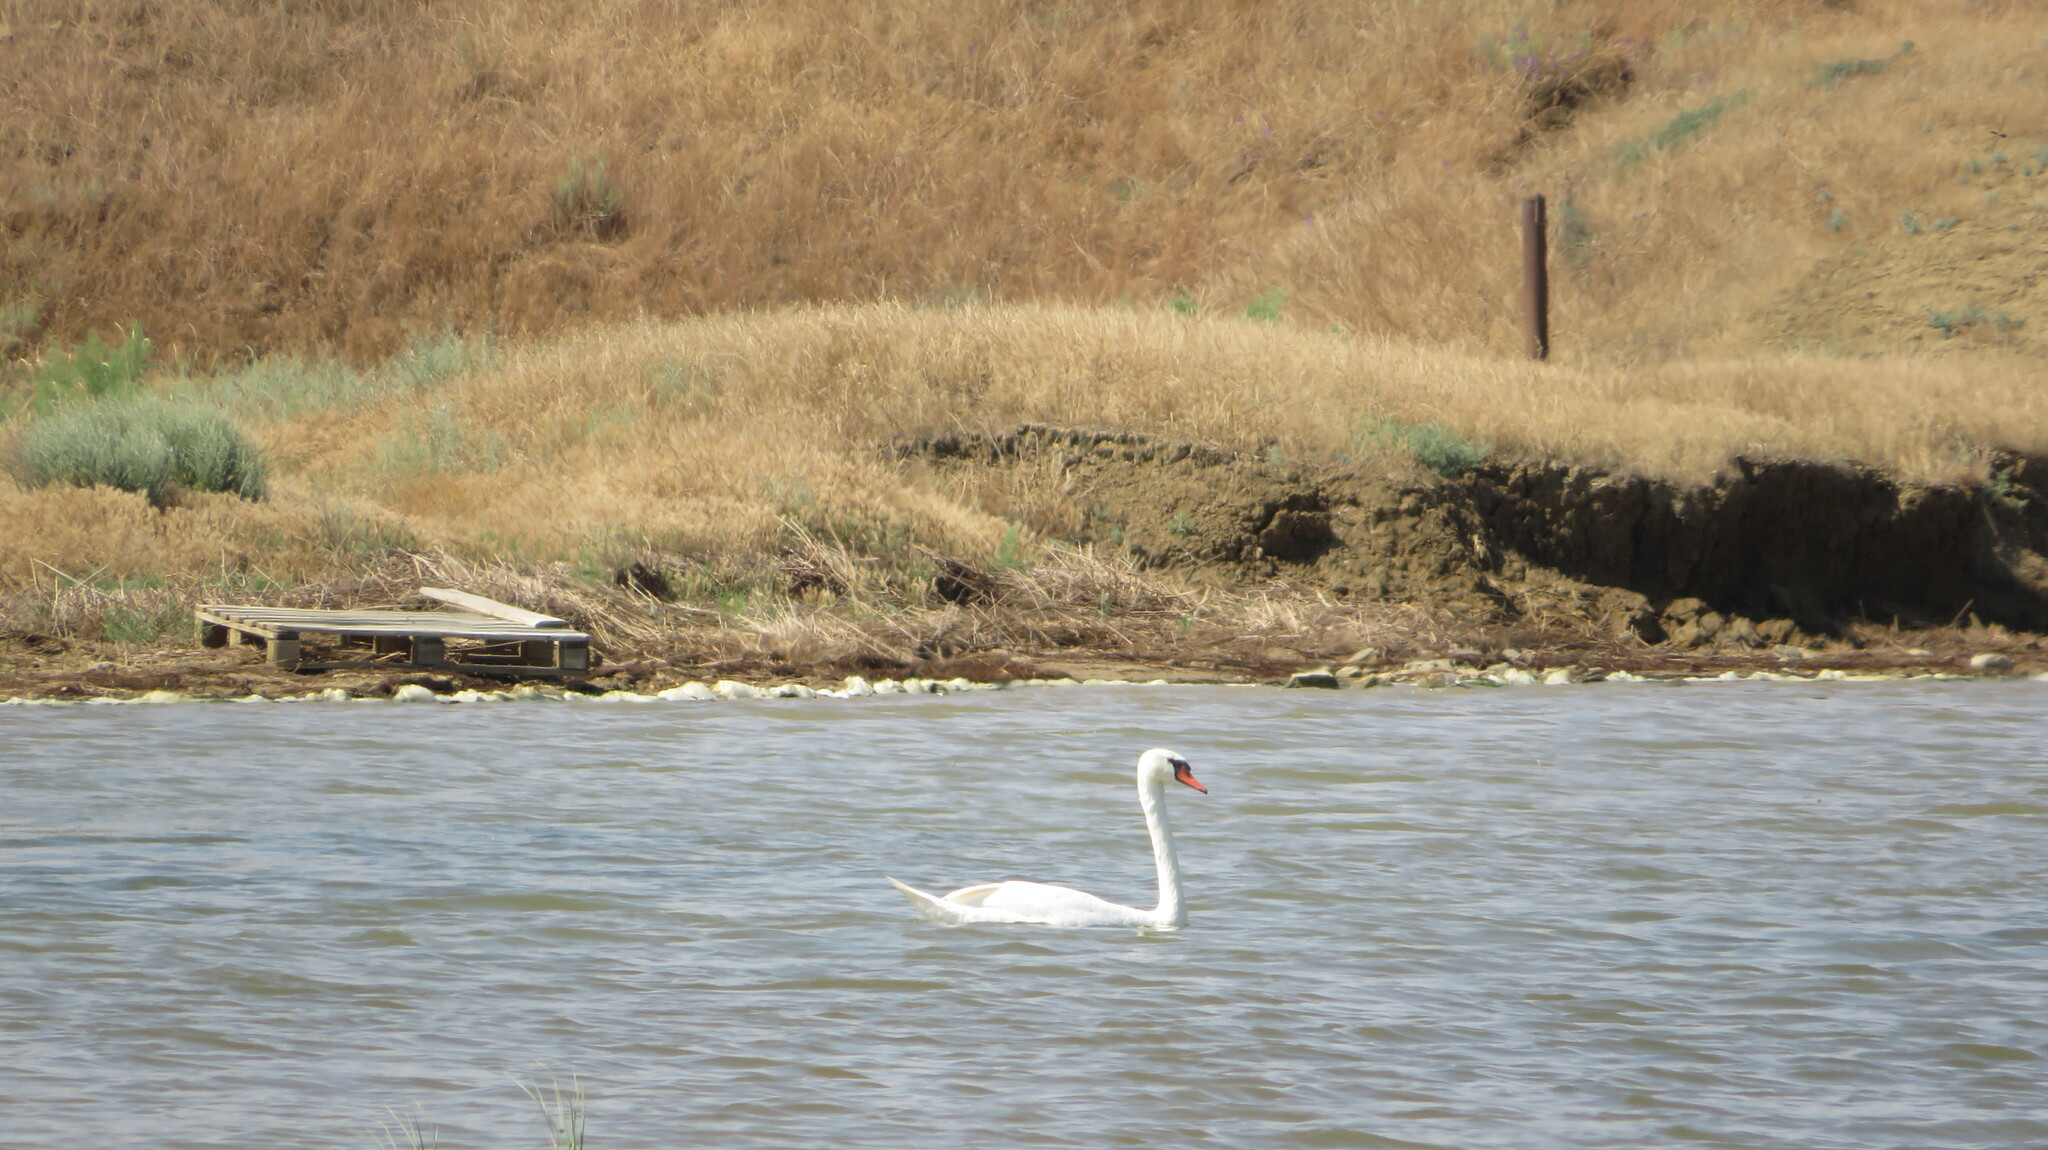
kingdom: Animalia
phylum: Chordata
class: Aves
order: Anseriformes
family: Anatidae
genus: Cygnus
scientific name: Cygnus olor
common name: Mute swan
